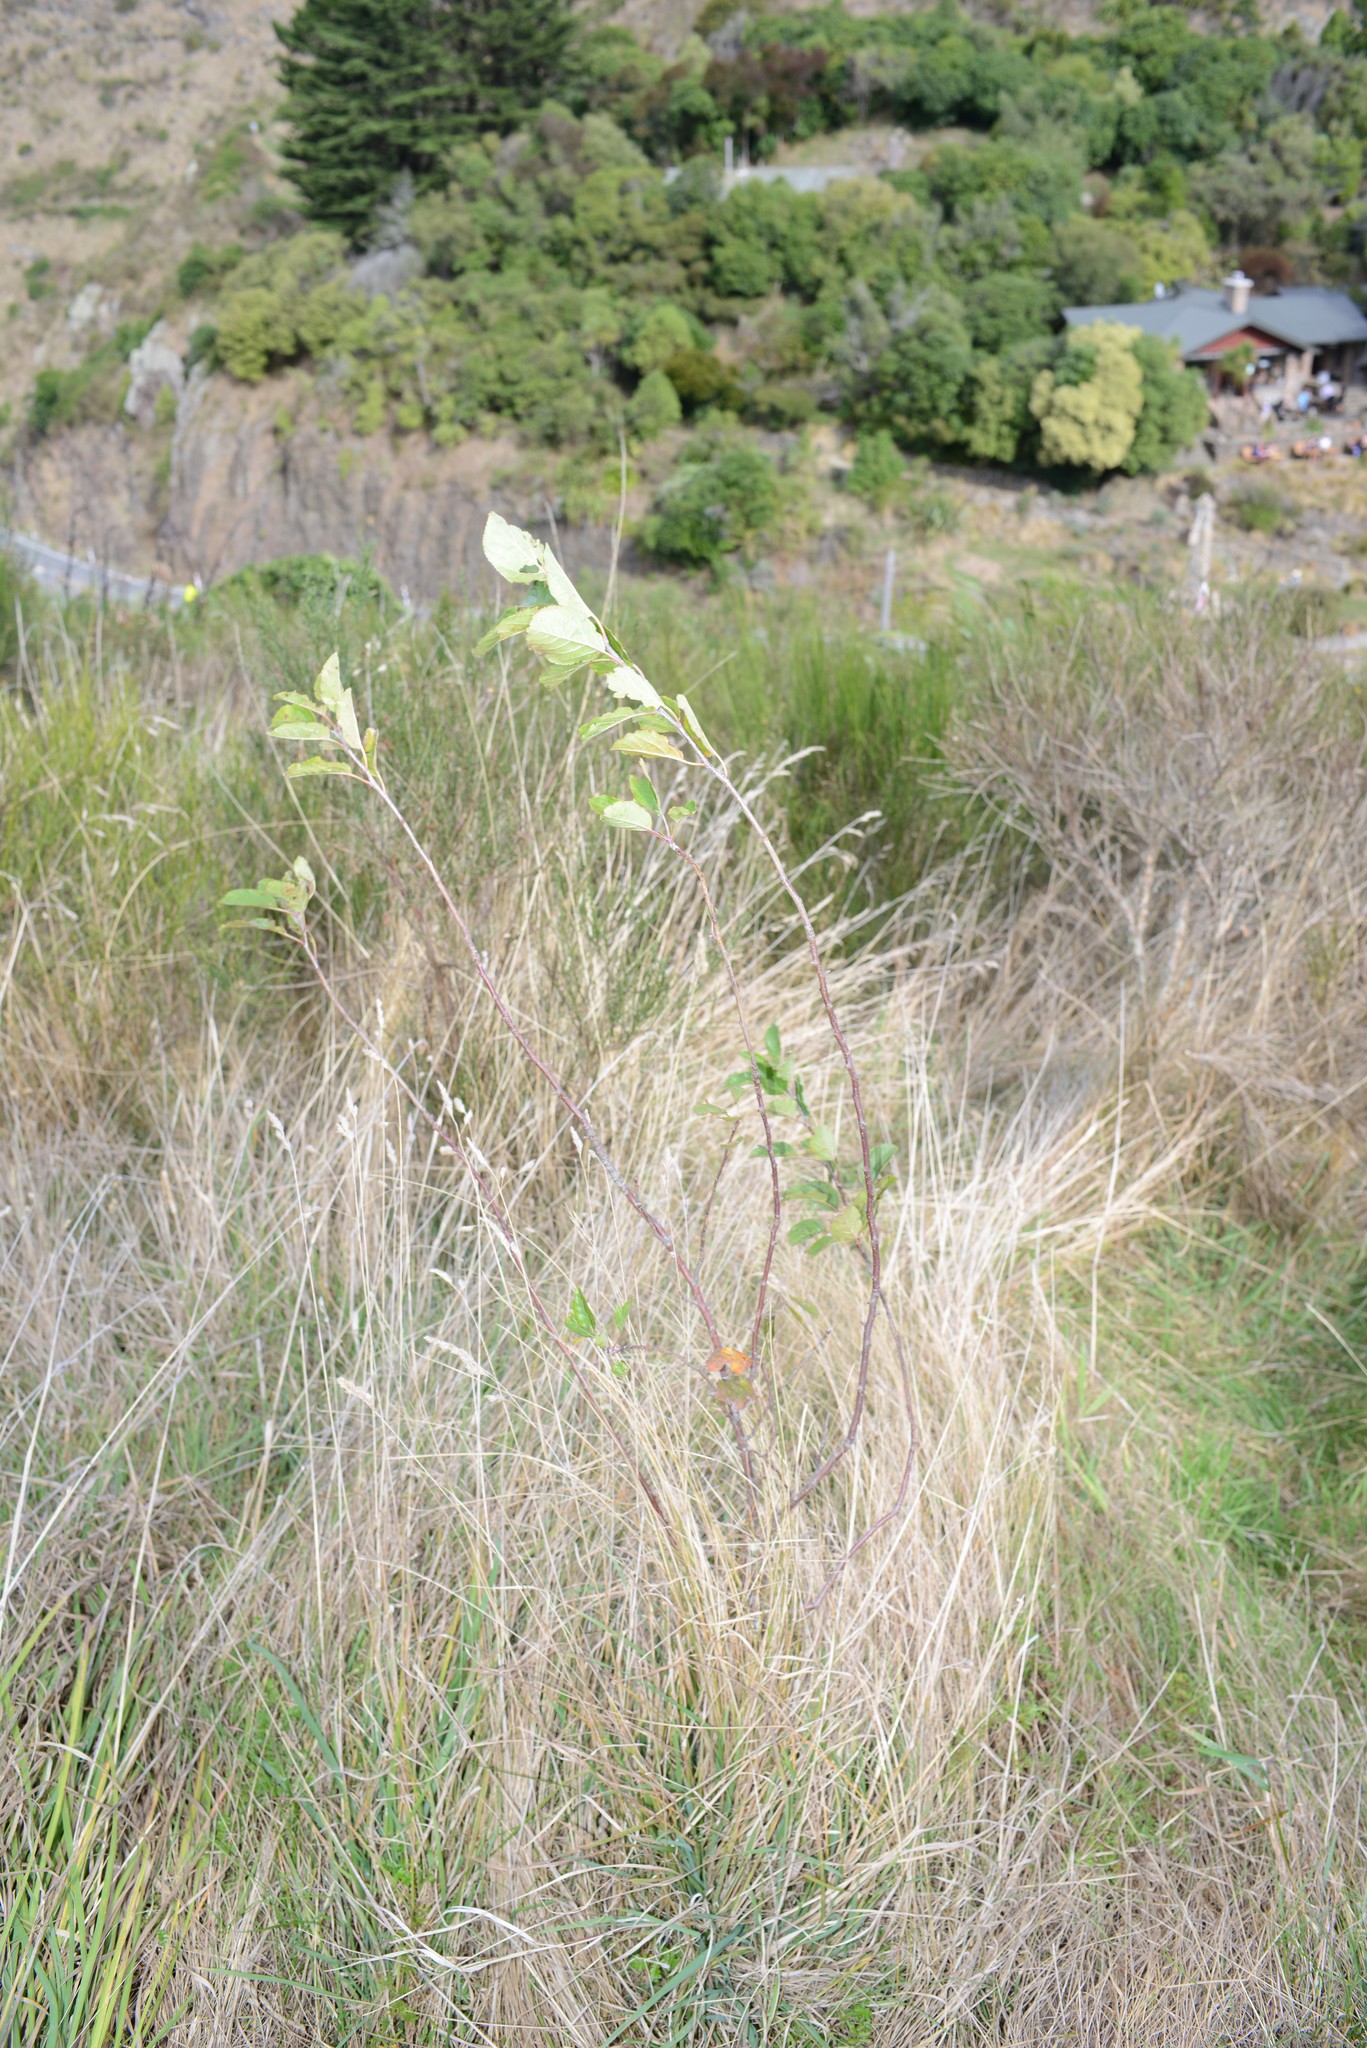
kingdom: Plantae
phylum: Tracheophyta
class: Magnoliopsida
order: Rosales
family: Rosaceae
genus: Malus
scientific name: Malus domestica
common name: Apple
